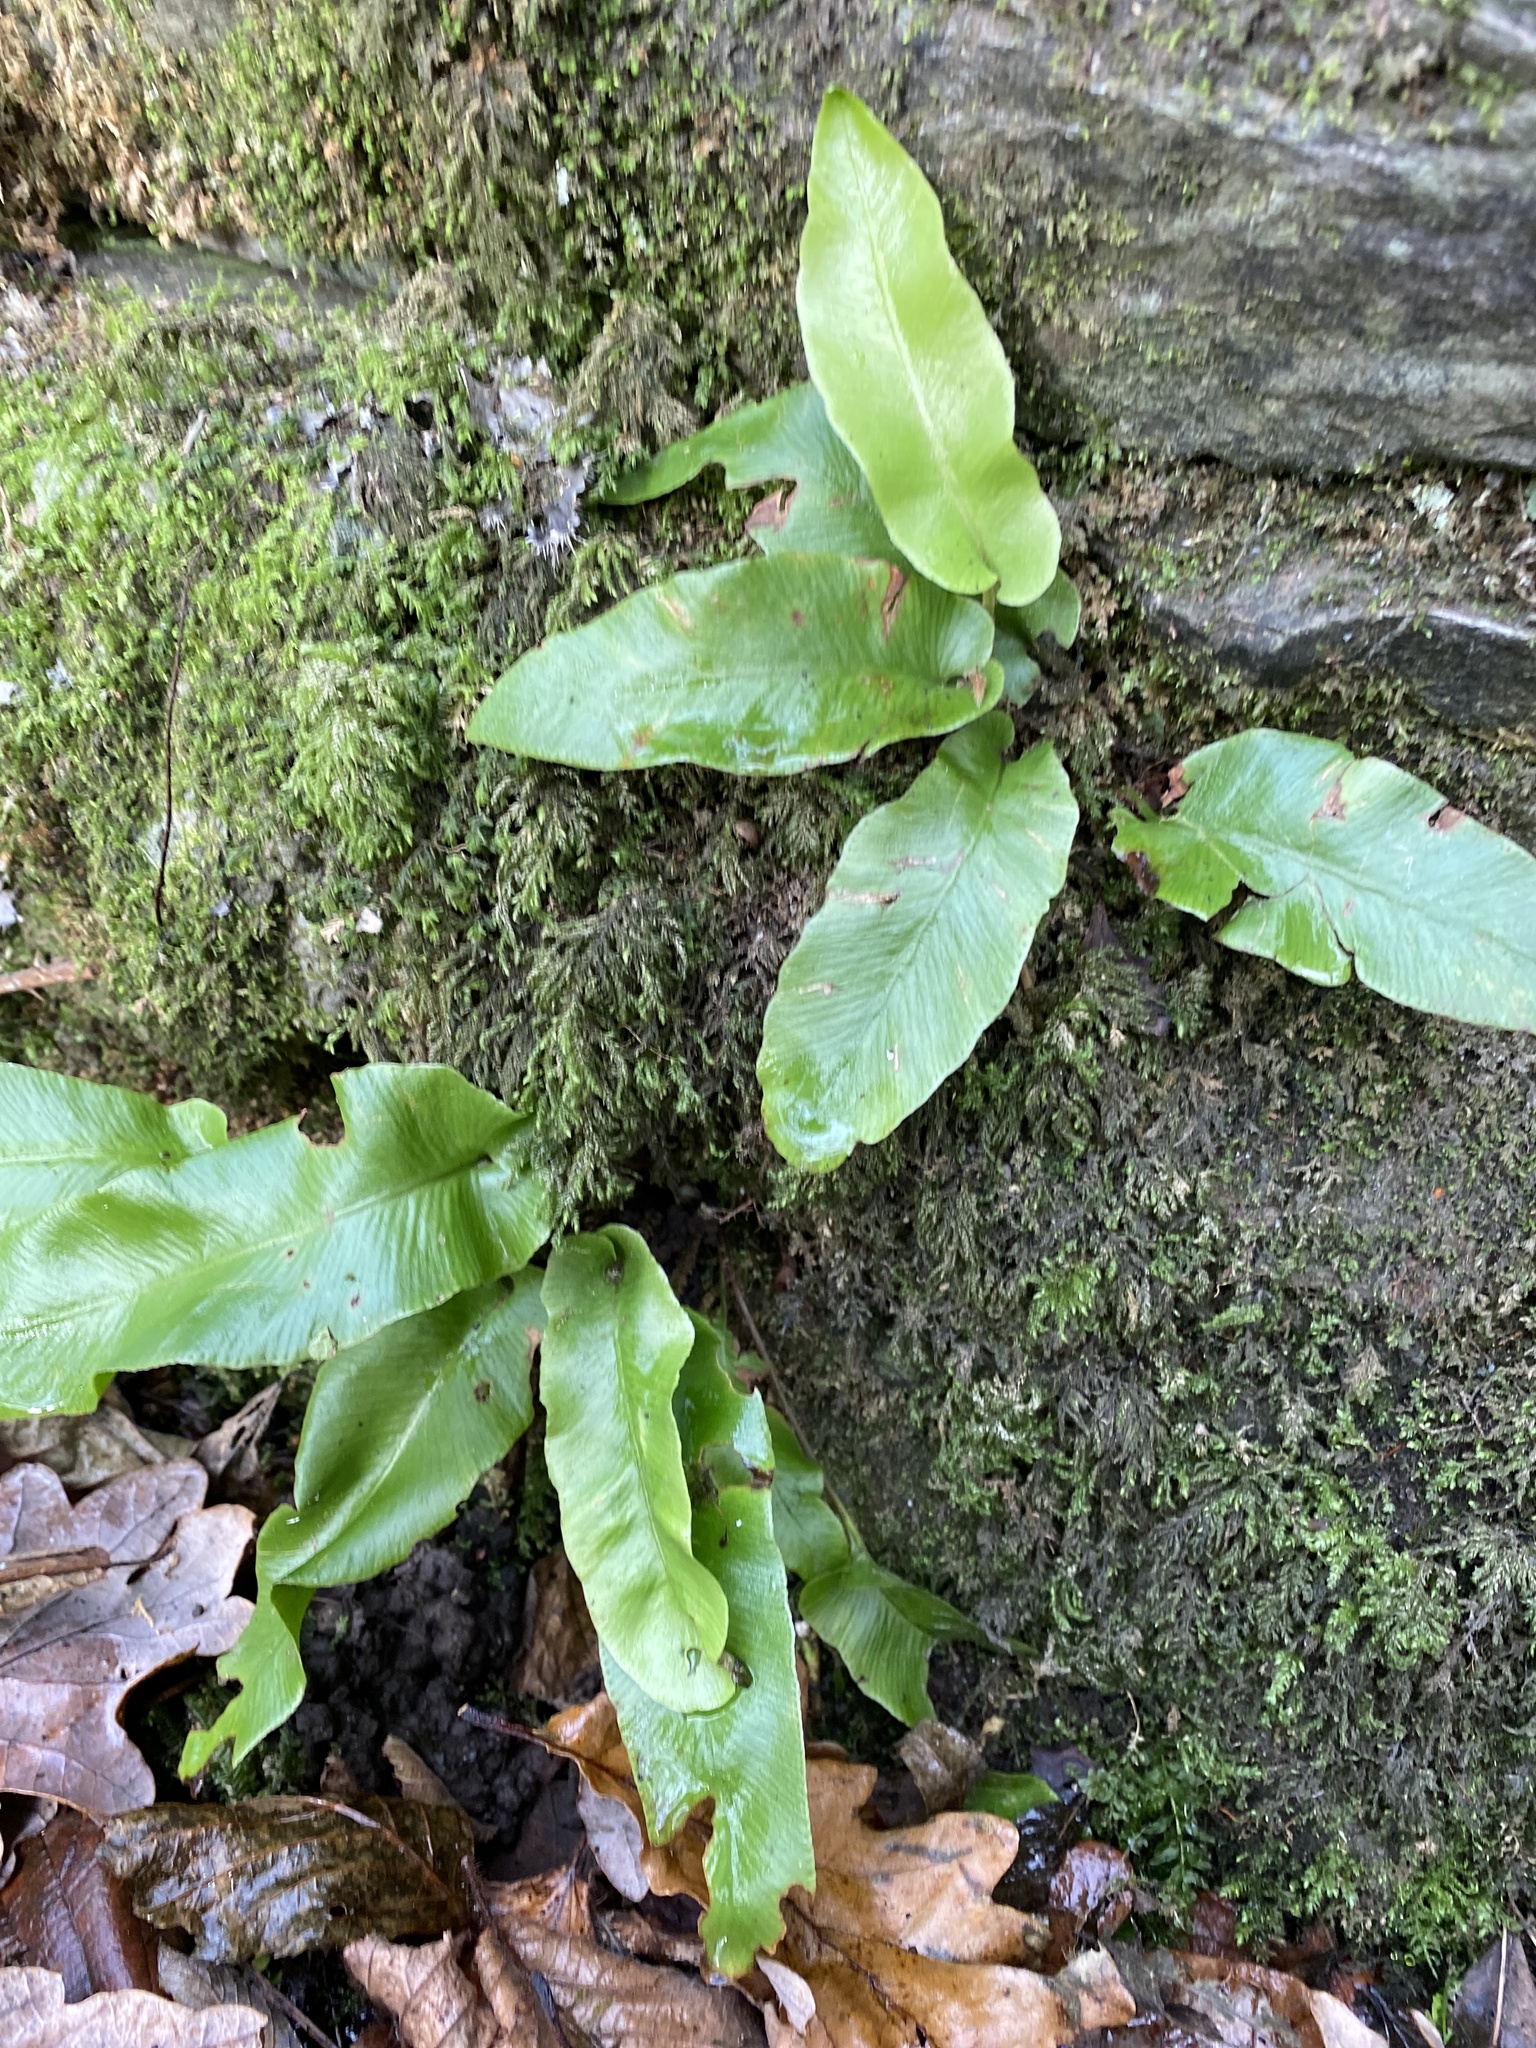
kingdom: Plantae
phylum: Tracheophyta
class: Polypodiopsida
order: Polypodiales
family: Aspleniaceae
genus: Asplenium
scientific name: Asplenium scolopendrium
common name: Hart's-tongue fern
